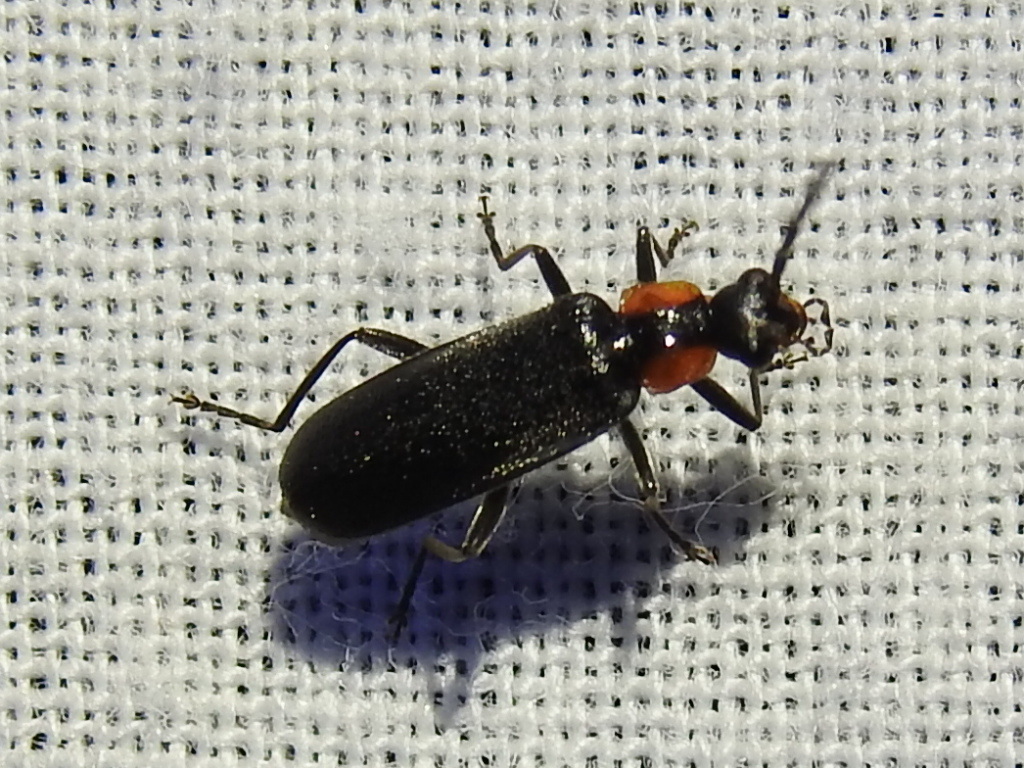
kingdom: Animalia
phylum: Arthropoda
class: Insecta
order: Coleoptera
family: Cantharidae
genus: Rhagonycha
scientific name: Rhagonycha lineola
